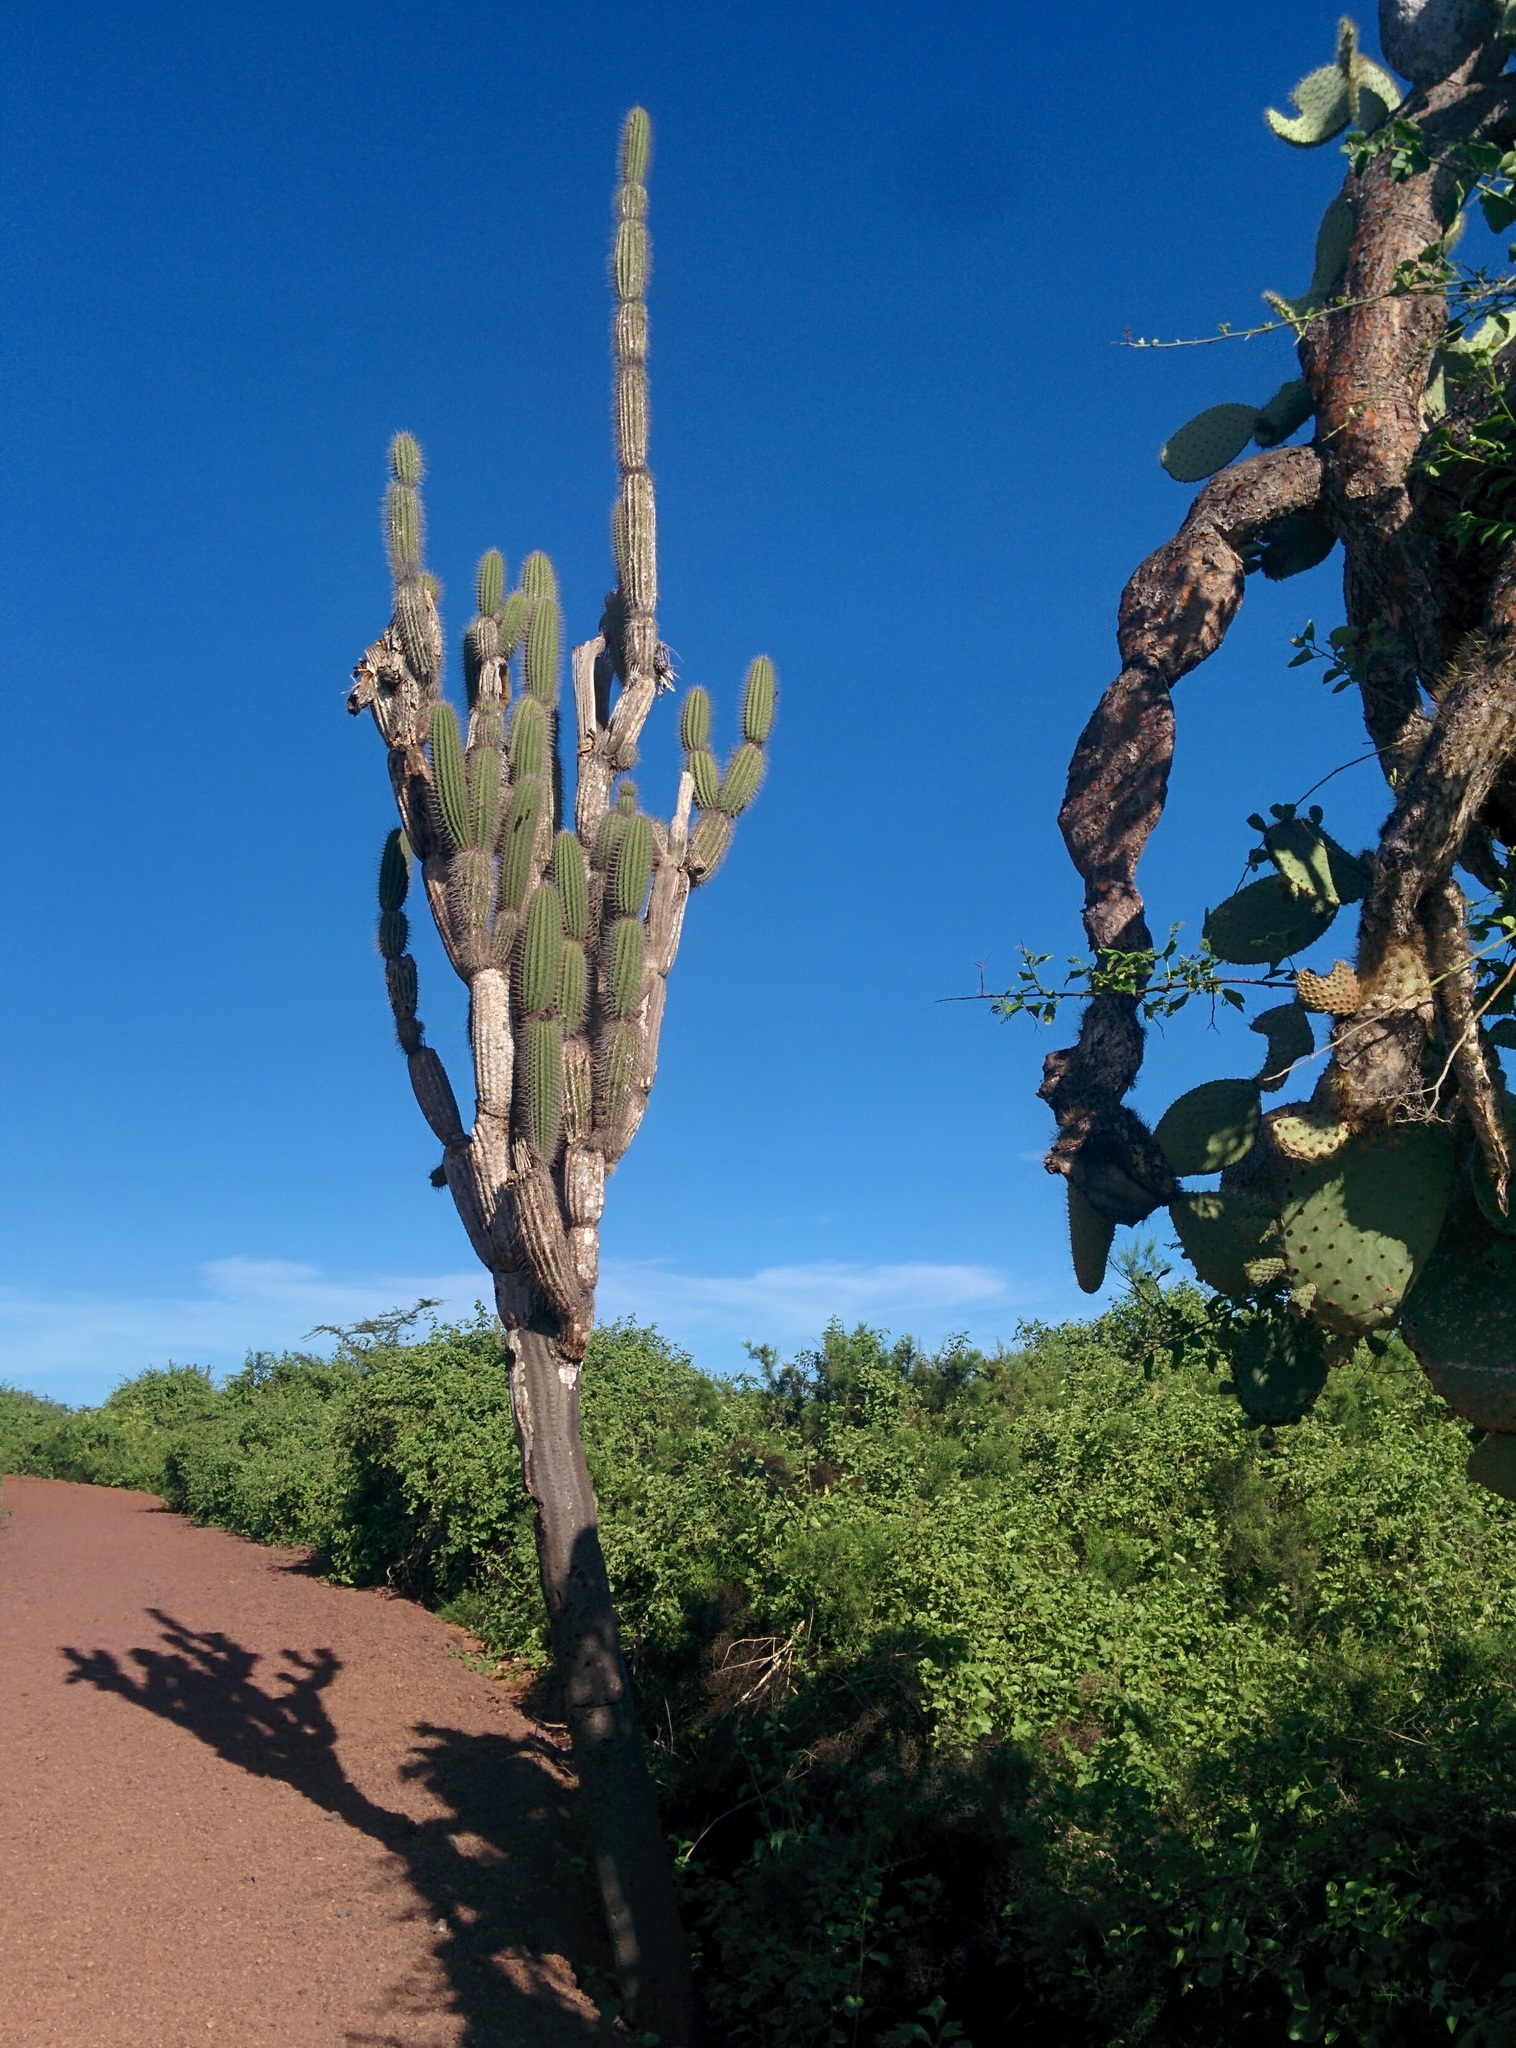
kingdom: Plantae
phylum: Tracheophyta
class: Magnoliopsida
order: Caryophyllales
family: Cactaceae
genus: Jasminocereus
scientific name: Jasminocereus thouarsii
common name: Candelabra cactus
